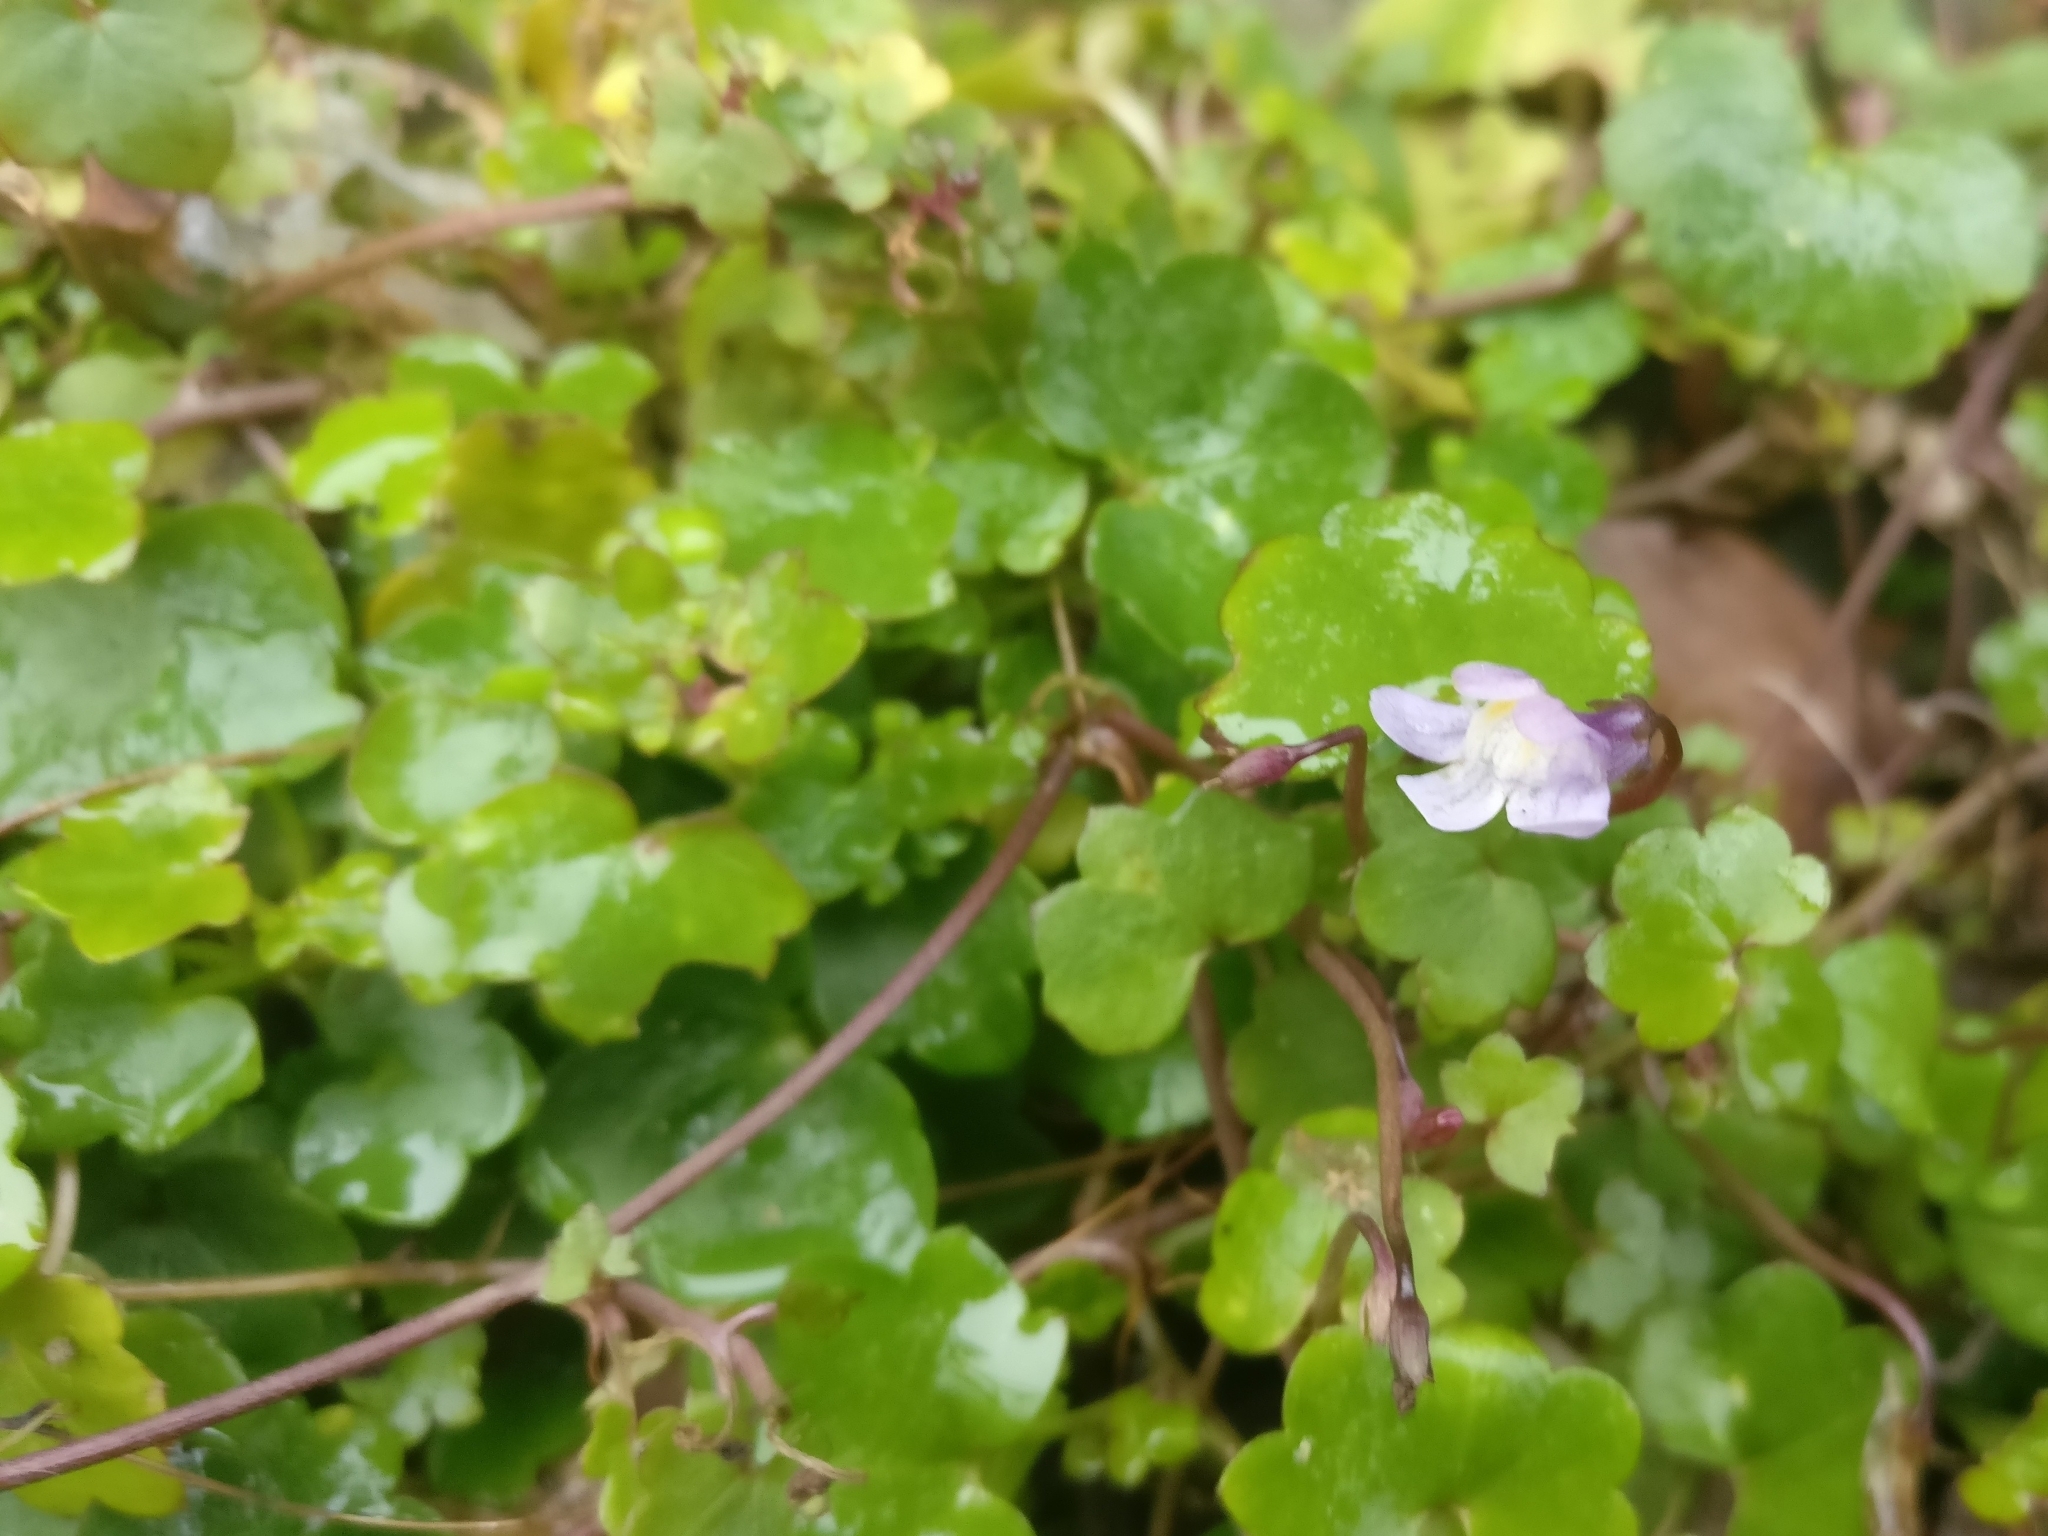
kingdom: Plantae
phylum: Tracheophyta
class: Magnoliopsida
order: Lamiales
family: Plantaginaceae
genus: Cymbalaria
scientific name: Cymbalaria muralis
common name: Ivy-leaved toadflax
